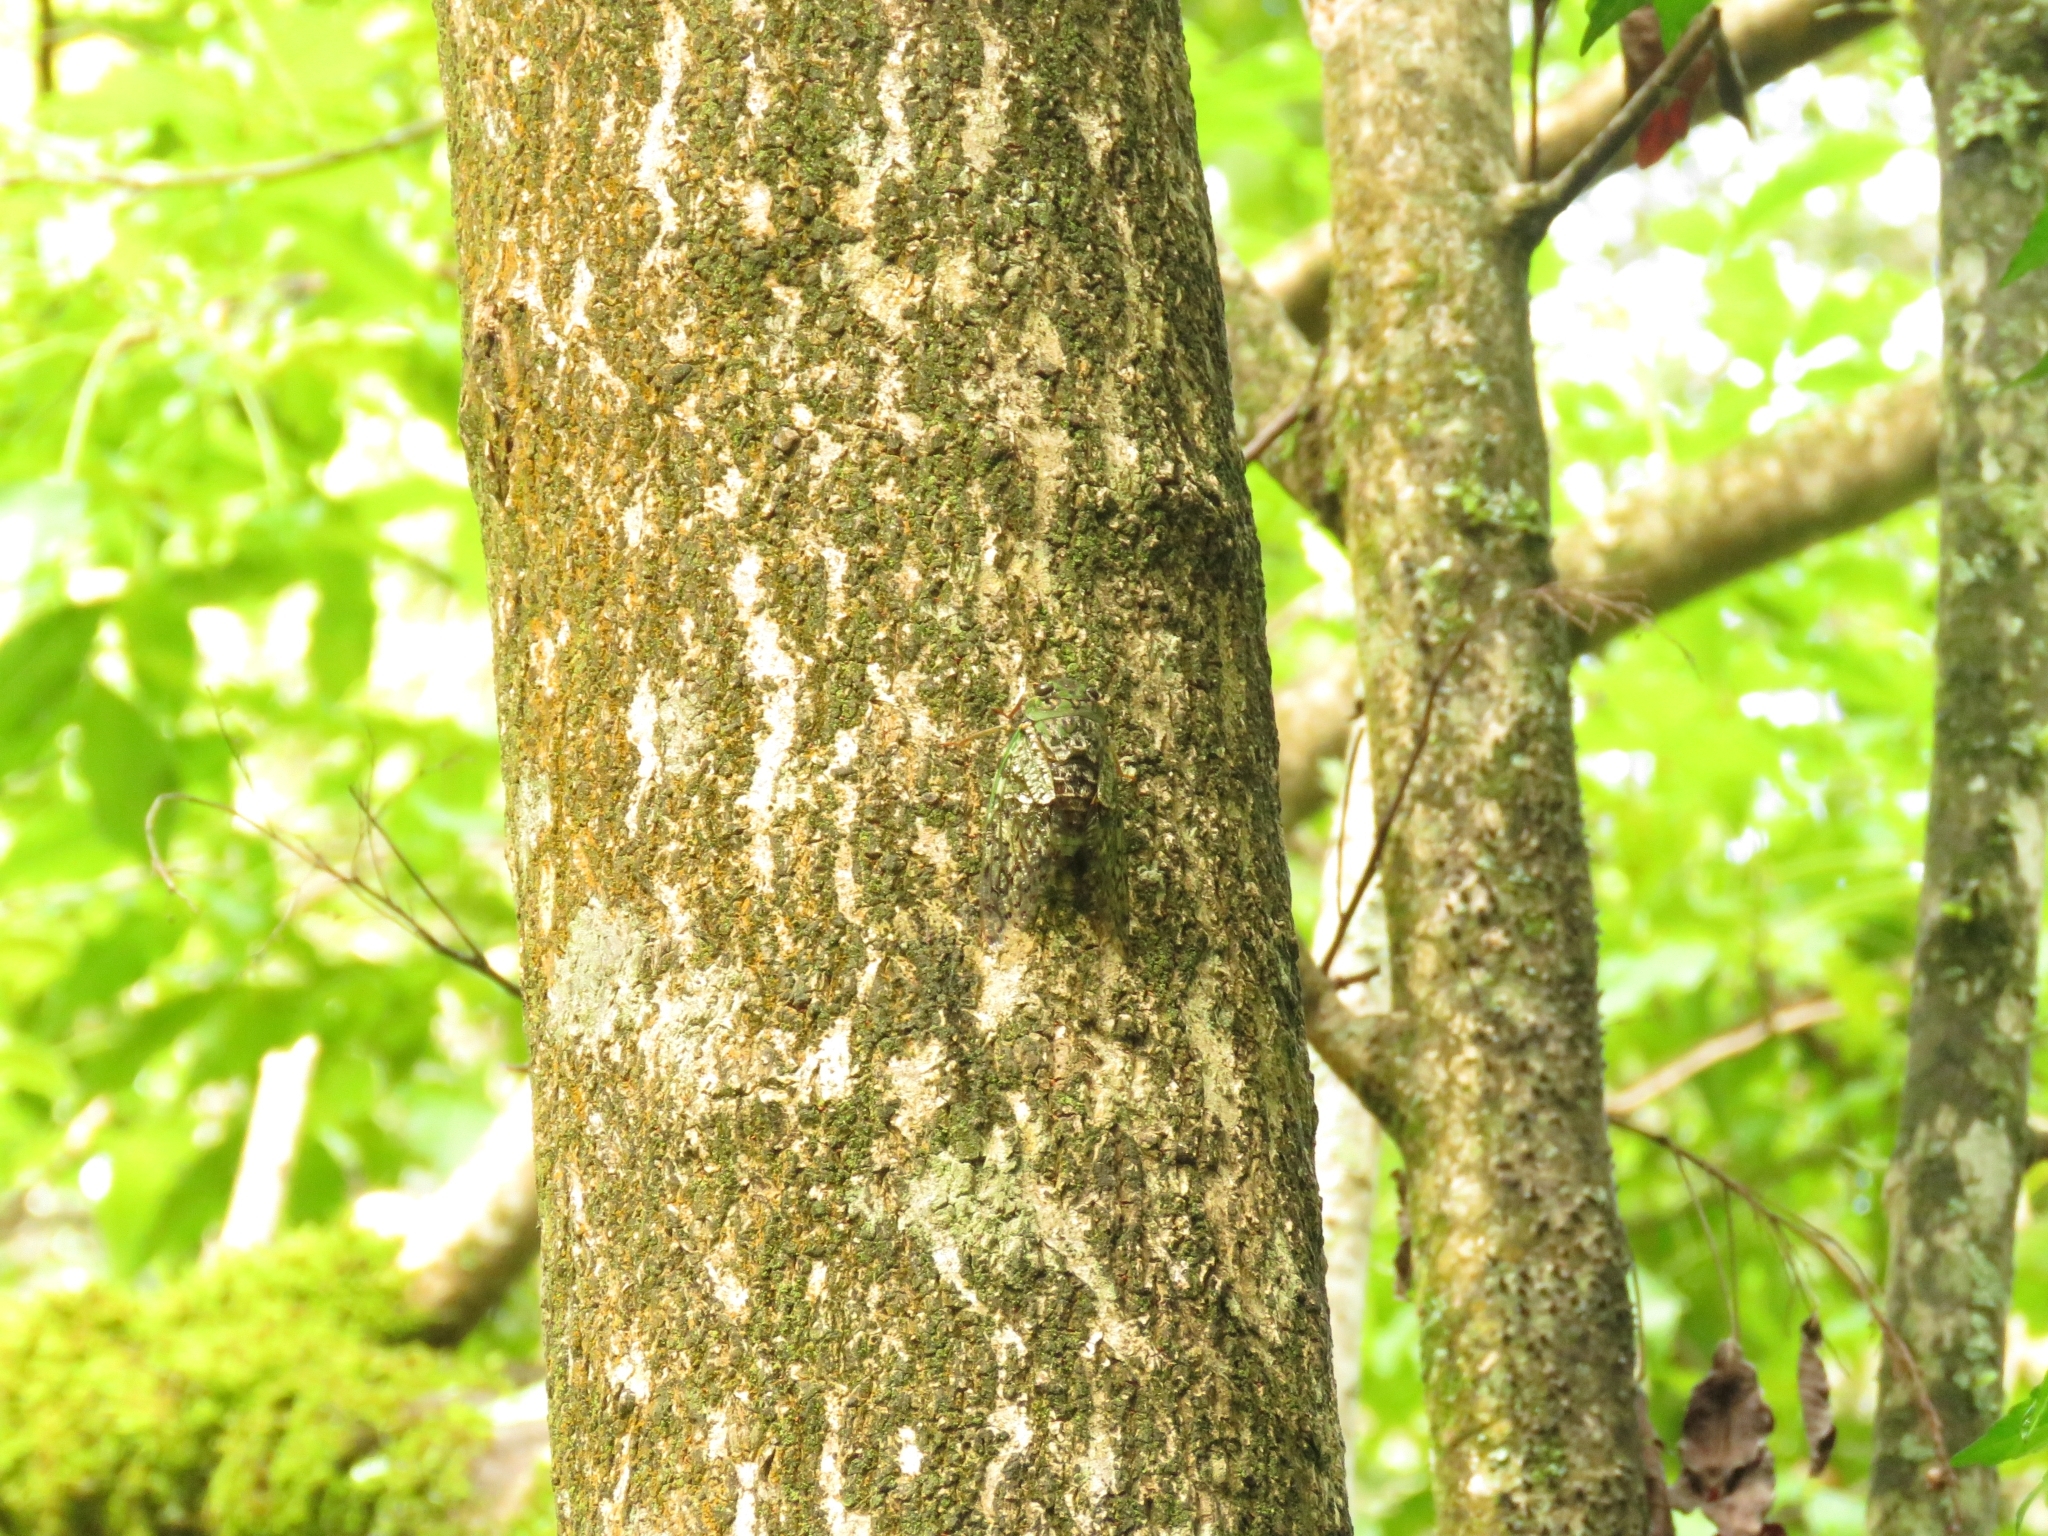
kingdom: Animalia
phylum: Arthropoda
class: Insecta
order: Hemiptera
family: Cicadidae
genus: Dyticopycna
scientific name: Dyticopycna semiclara
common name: Whining forest cicada
